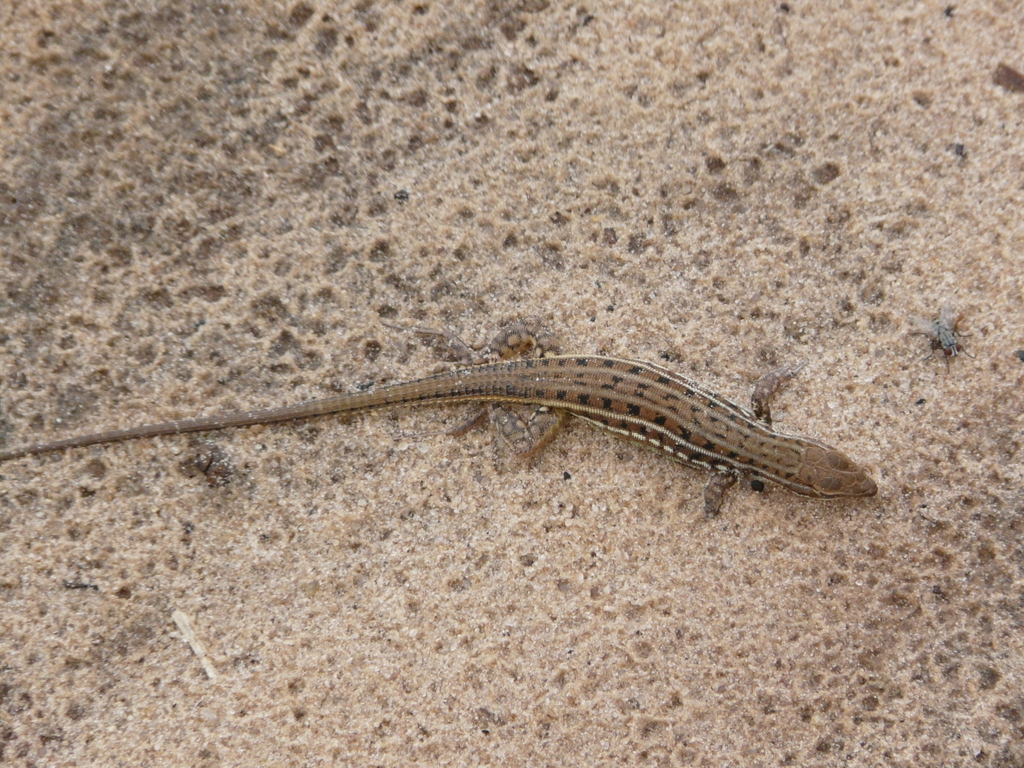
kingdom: Animalia
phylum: Chordata
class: Squamata
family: Lacertidae
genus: Heliobolus
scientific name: Heliobolus spekii
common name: Speke’s sand lizard
